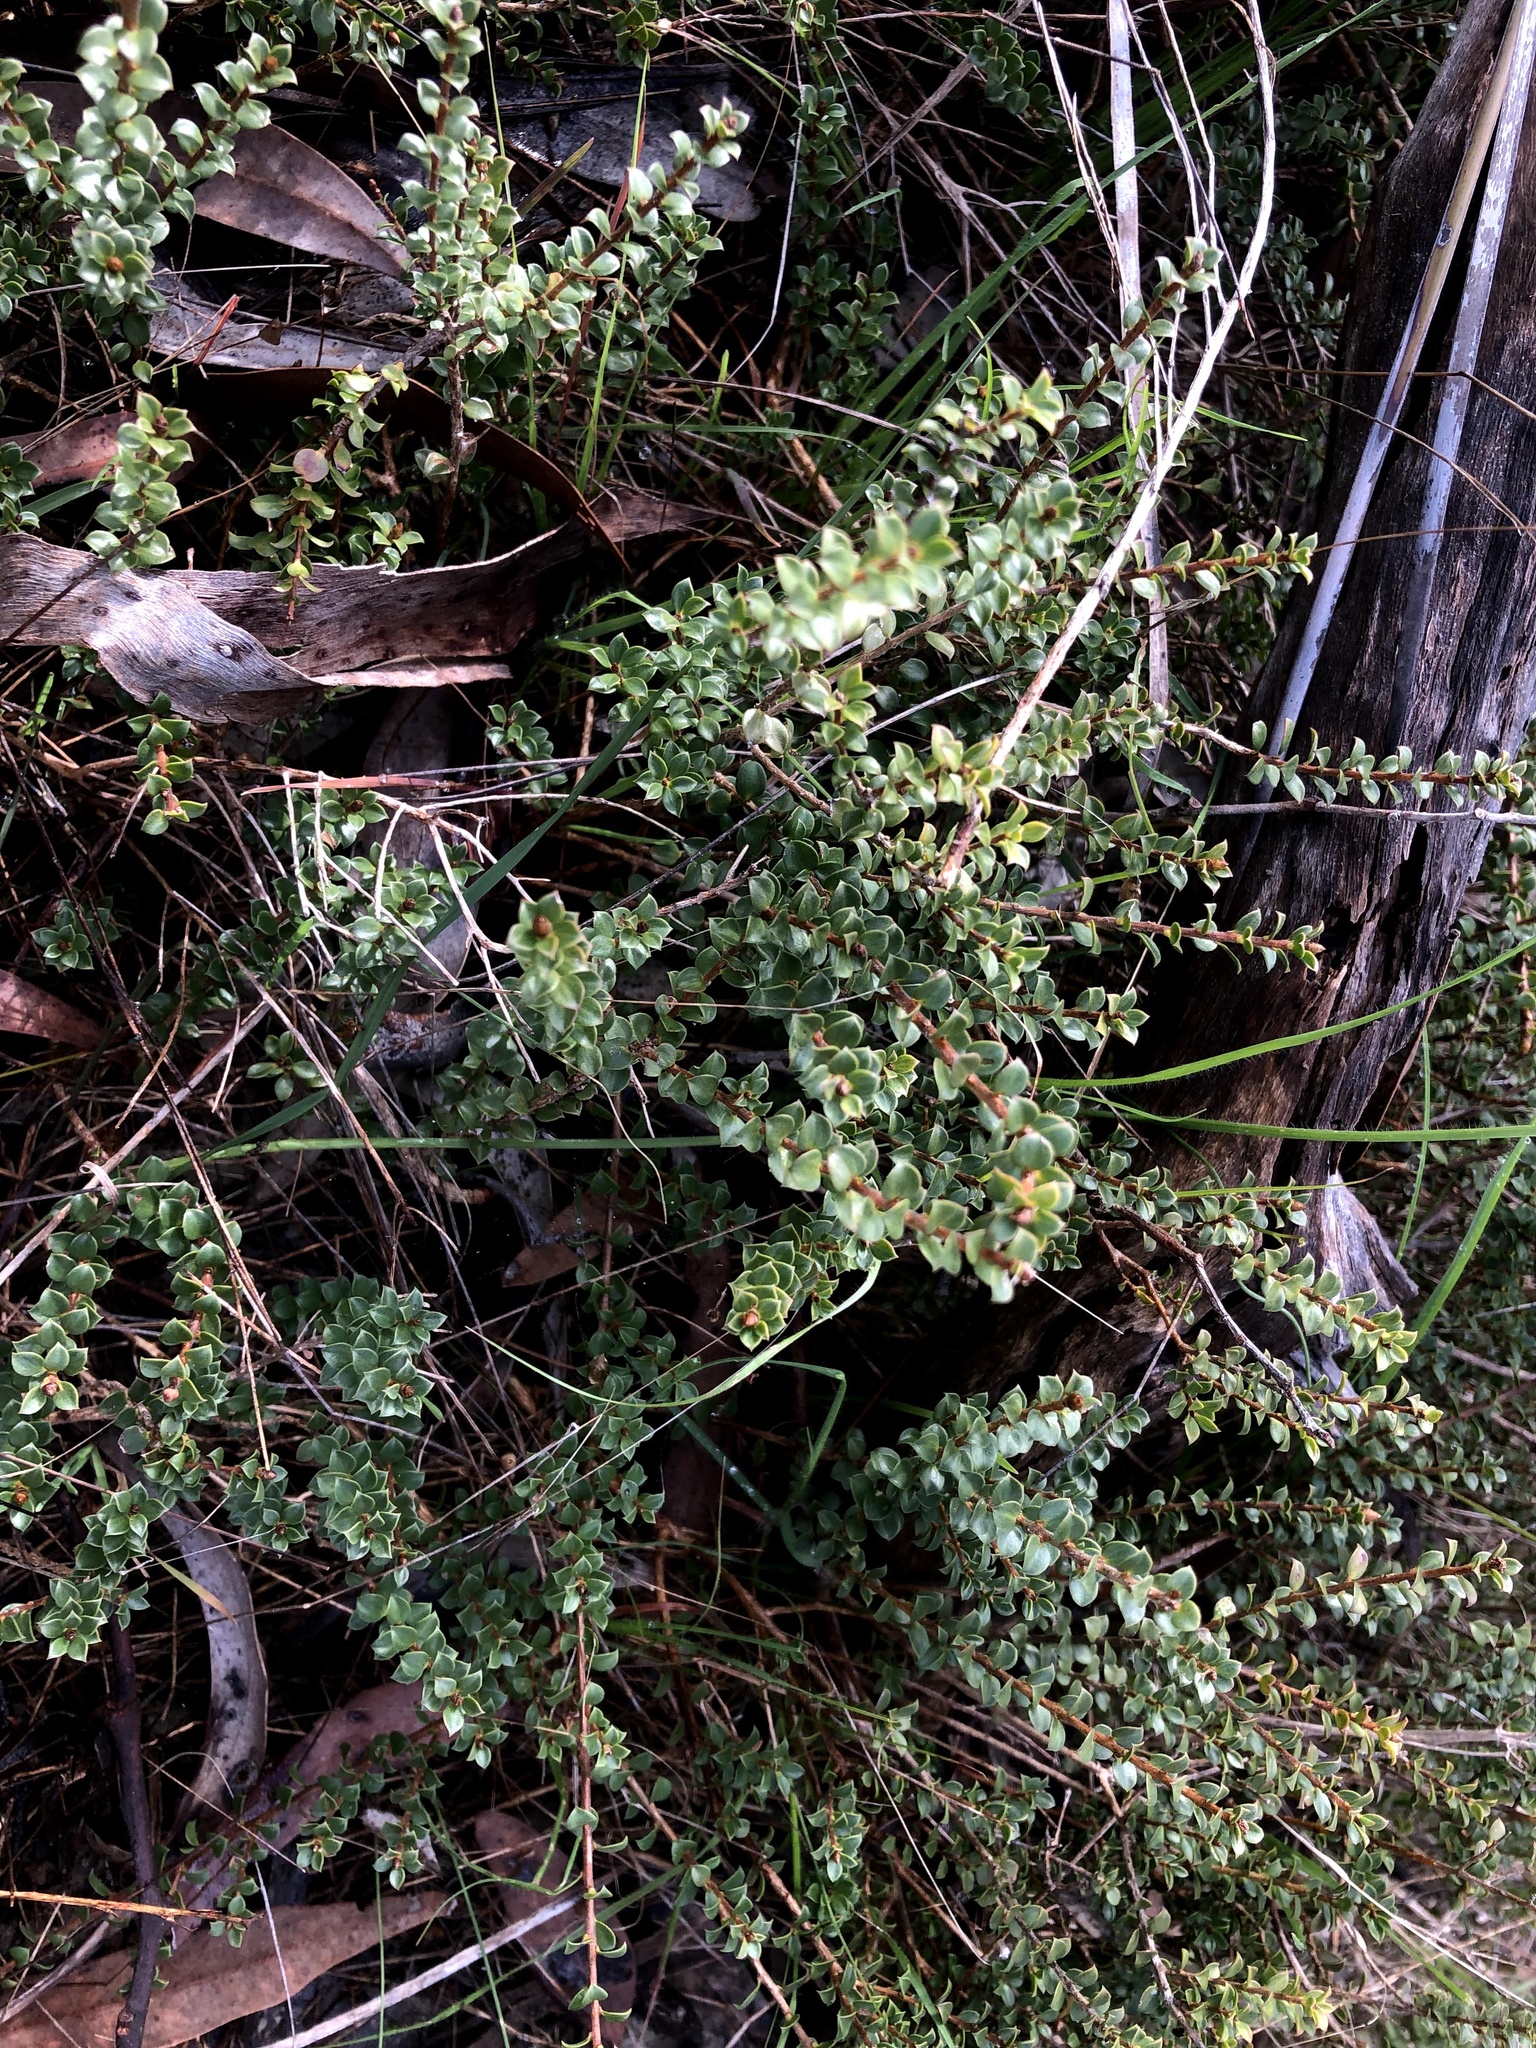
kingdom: Plantae
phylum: Tracheophyta
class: Magnoliopsida
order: Myrtales
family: Myrtaceae
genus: Kunzea
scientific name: Kunzea pomifera
